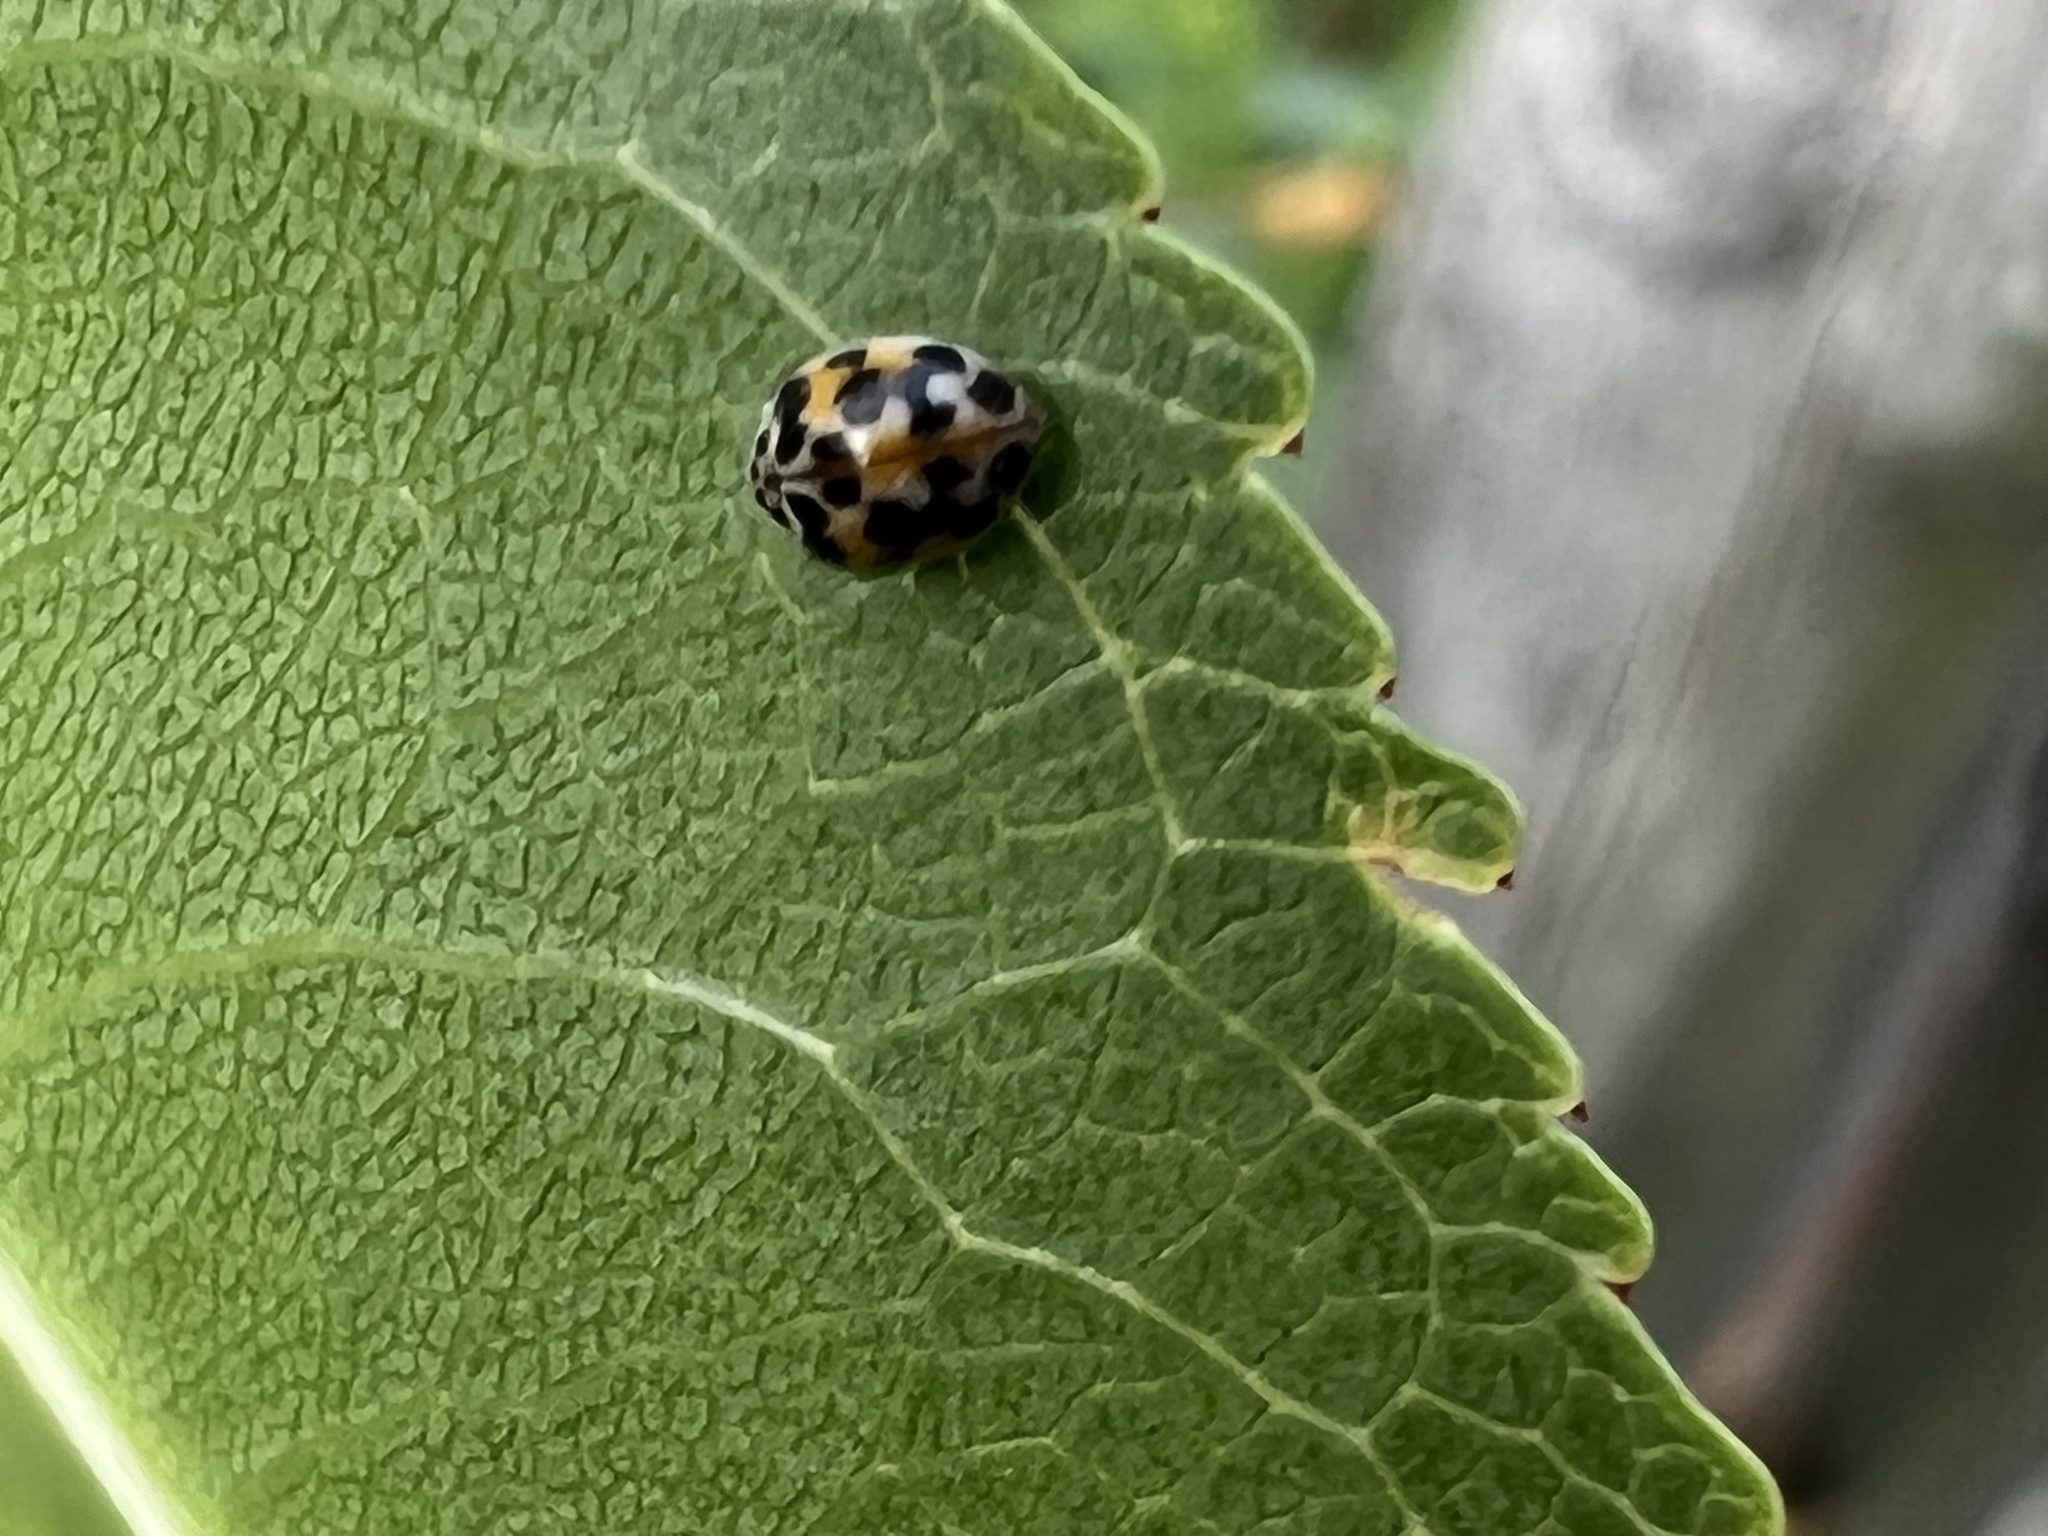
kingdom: Animalia
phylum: Arthropoda
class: Insecta
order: Coleoptera
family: Coccinellidae
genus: Psyllobora
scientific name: Psyllobora vigintimaculata
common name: Ladybird beetle
